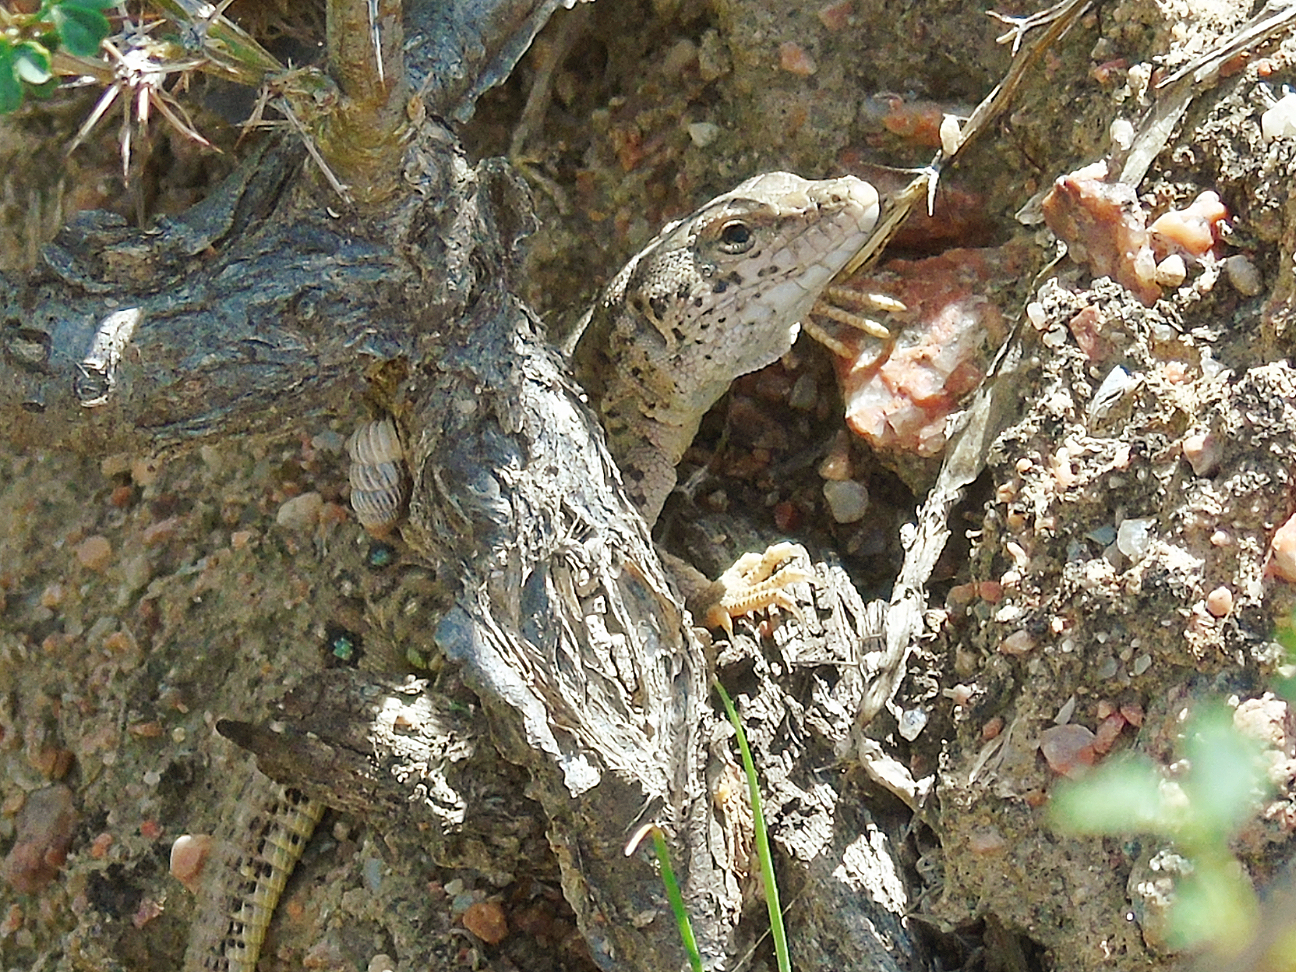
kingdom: Animalia
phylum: Chordata
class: Squamata
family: Lacertidae
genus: Eremias
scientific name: Eremias stummeri
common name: Stummer’s racerunner
